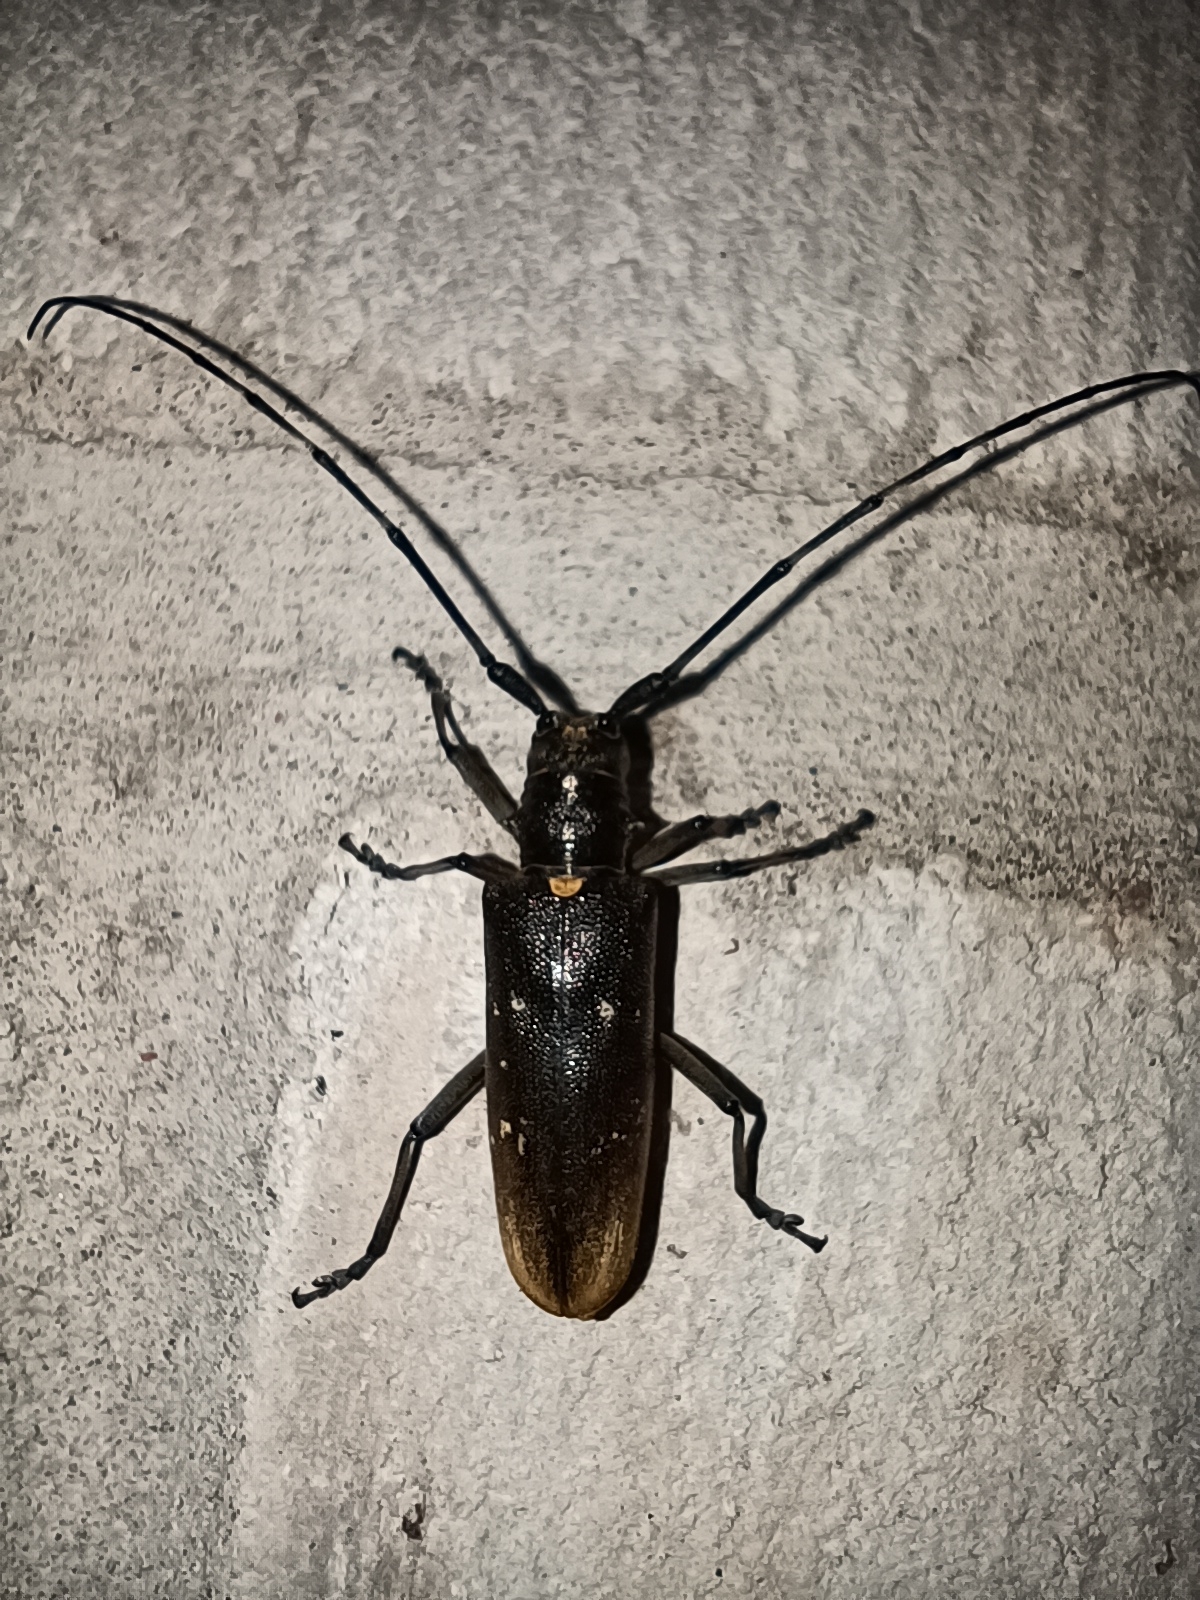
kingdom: Animalia
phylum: Arthropoda
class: Insecta
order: Coleoptera
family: Cerambycidae
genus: Monochamus
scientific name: Monochamus sartor
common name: Pine sawyer
